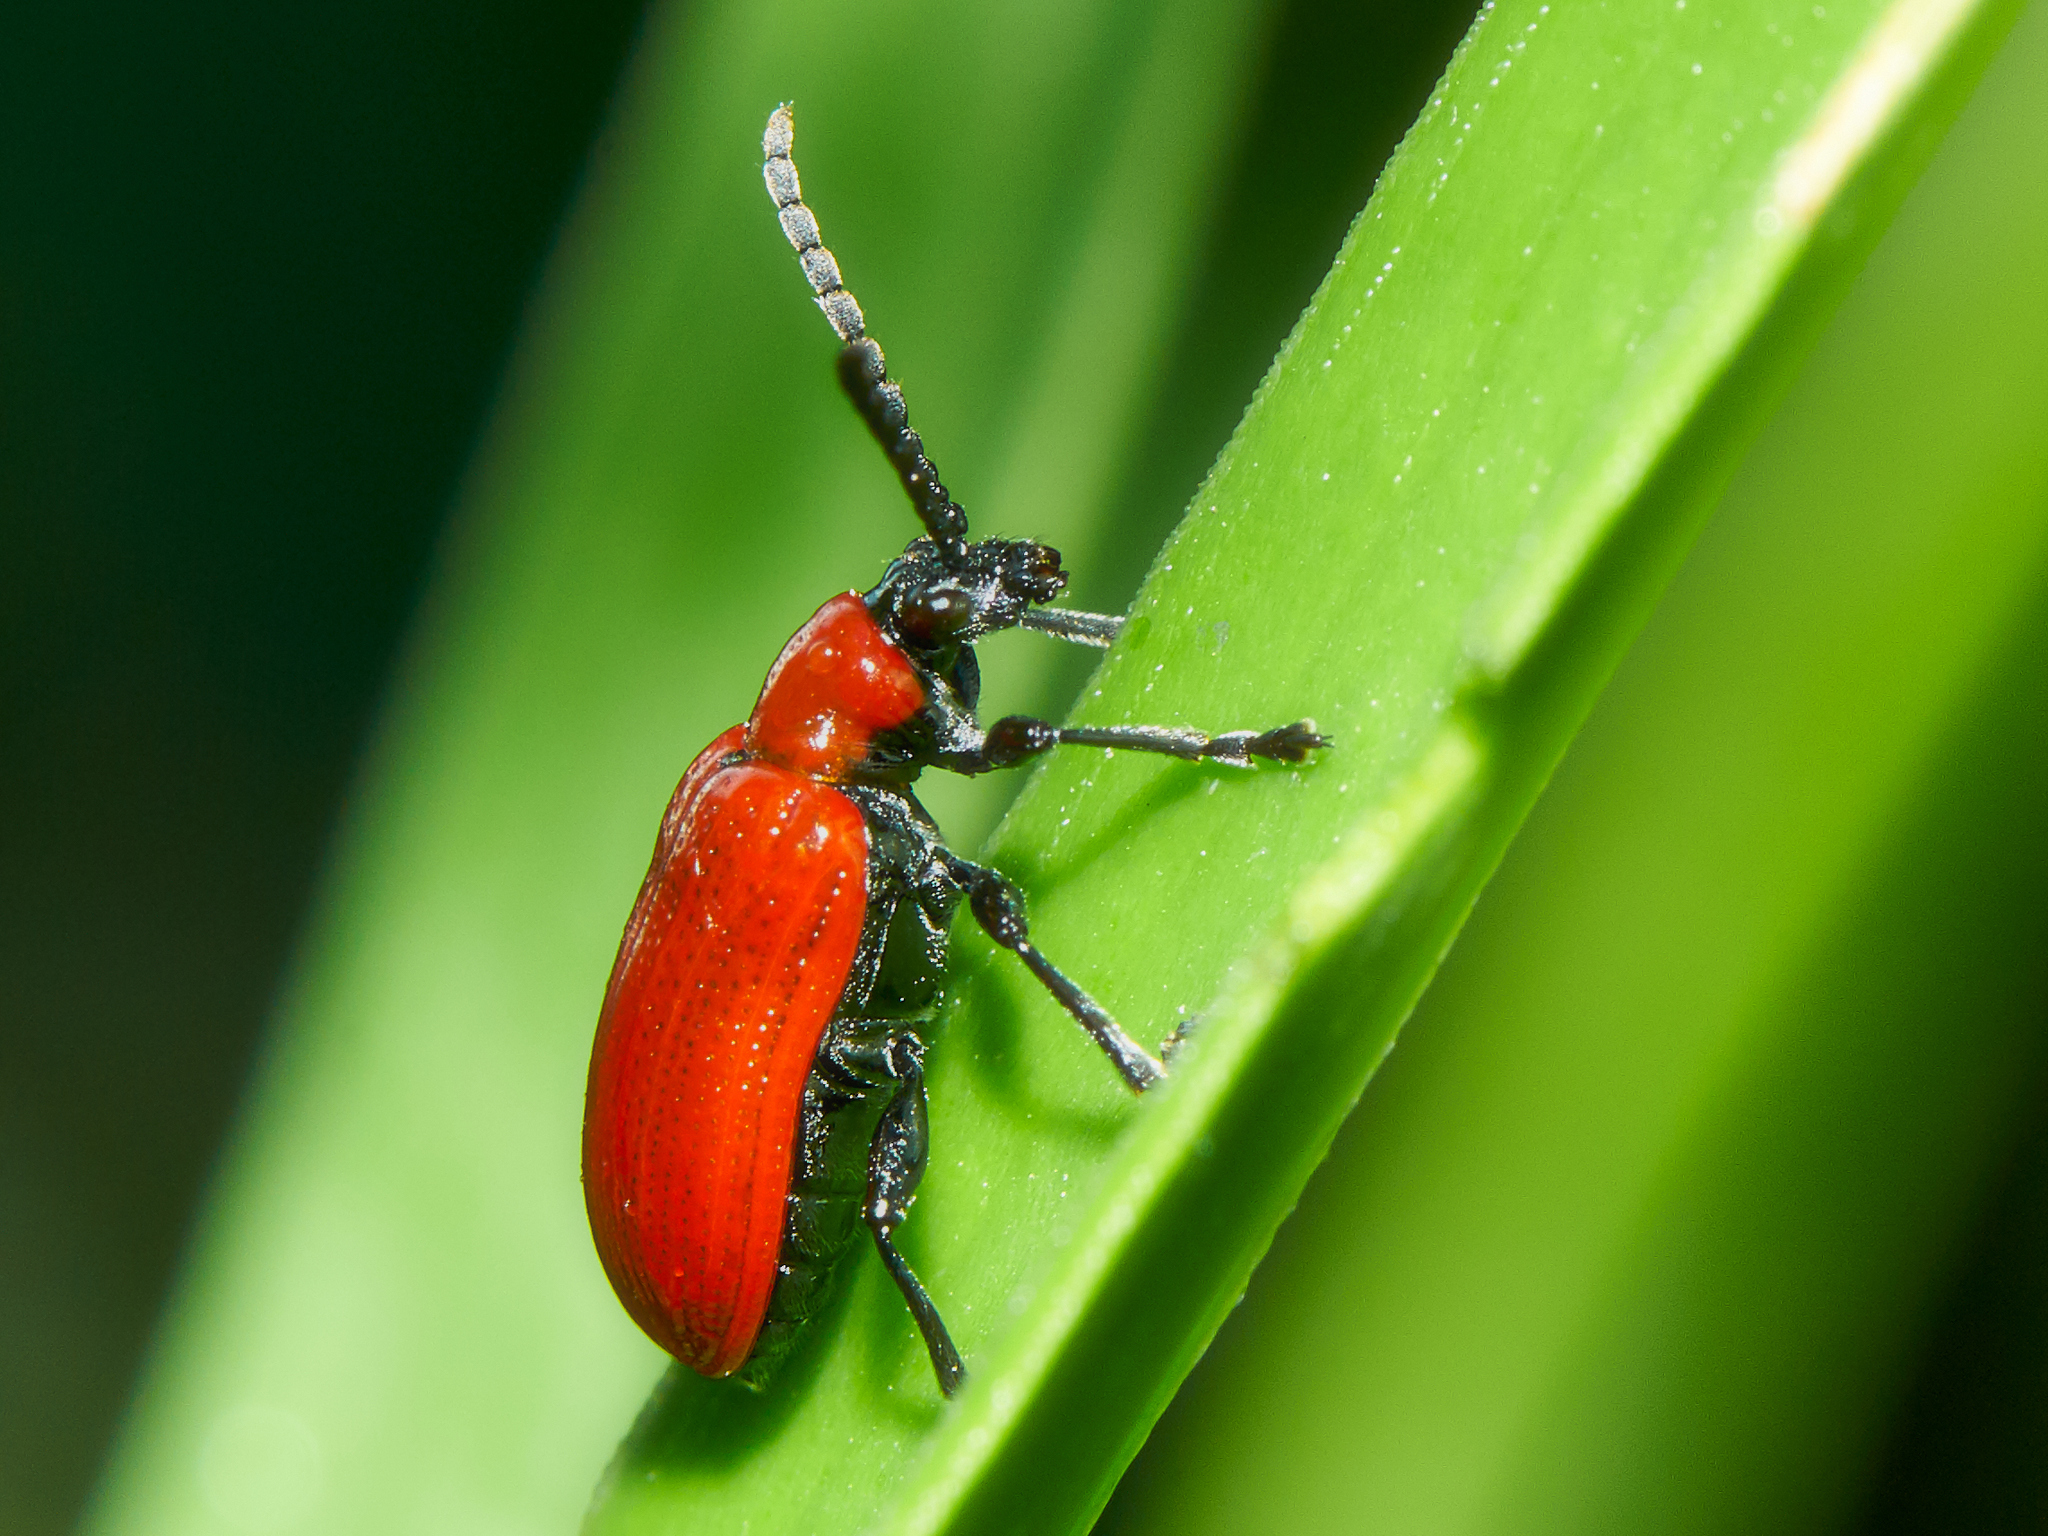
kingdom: Animalia
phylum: Arthropoda
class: Insecta
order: Coleoptera
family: Chrysomelidae
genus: Lilioceris
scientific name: Lilioceris lilii
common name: Lily beetle
